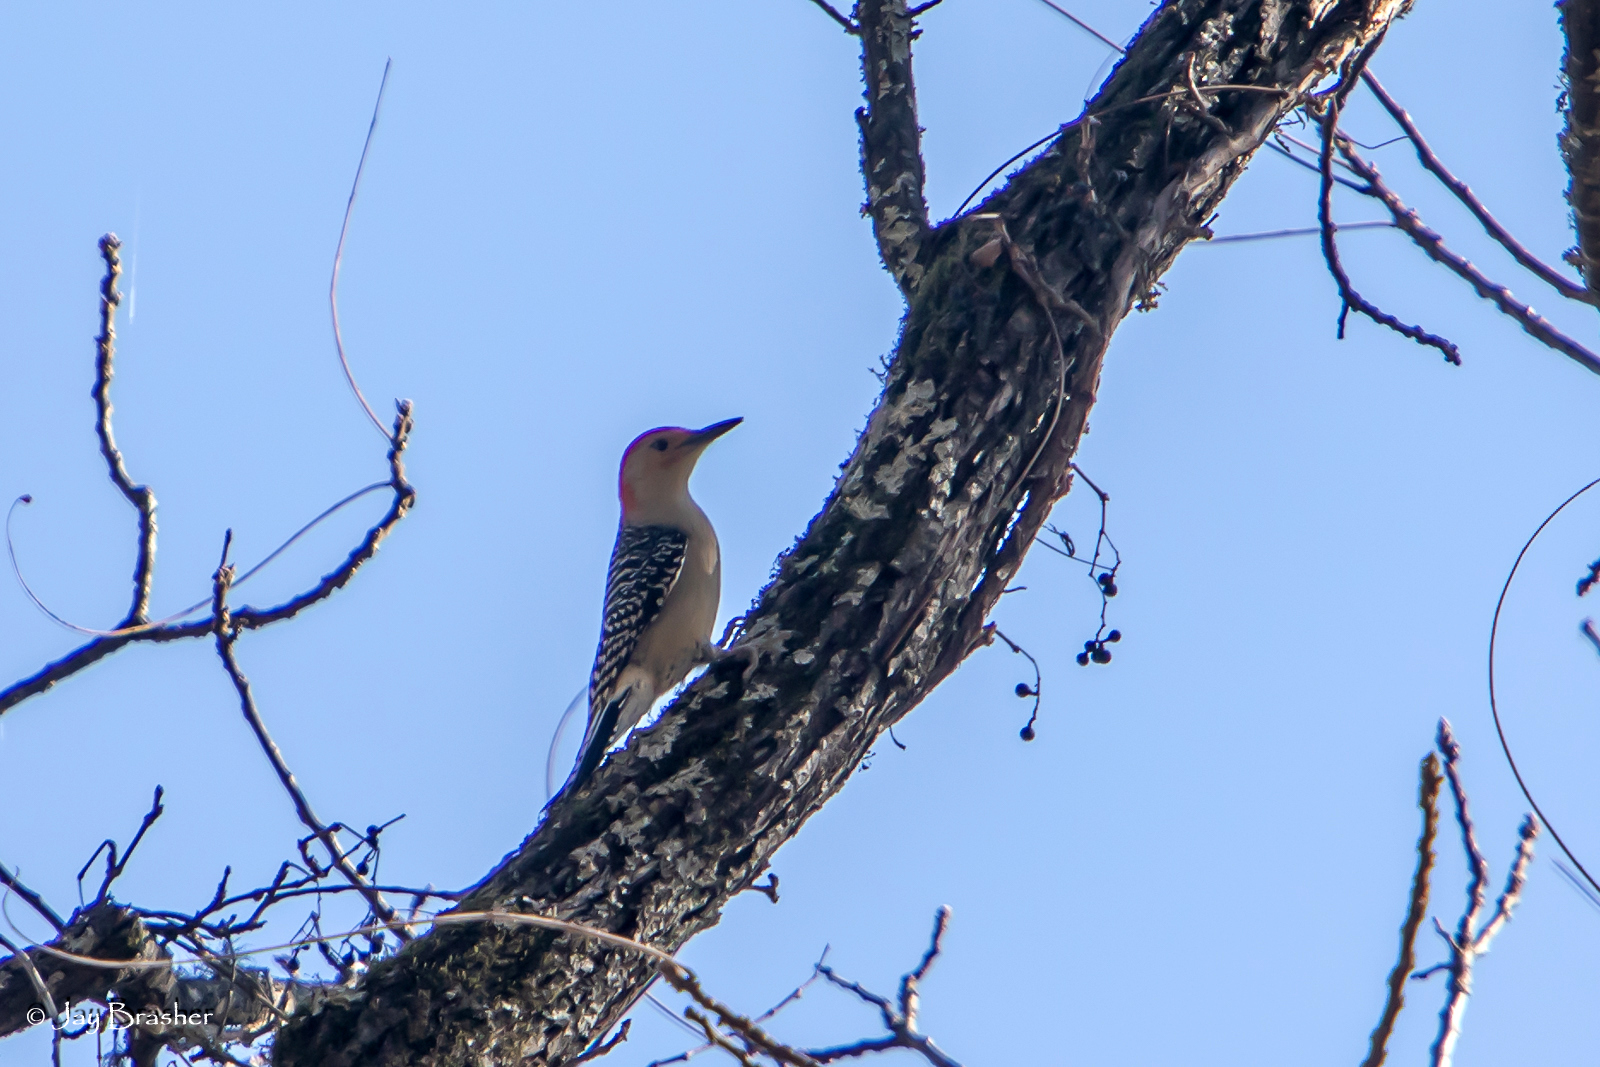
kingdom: Animalia
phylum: Chordata
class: Aves
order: Piciformes
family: Picidae
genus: Melanerpes
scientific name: Melanerpes carolinus
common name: Red-bellied woodpecker
